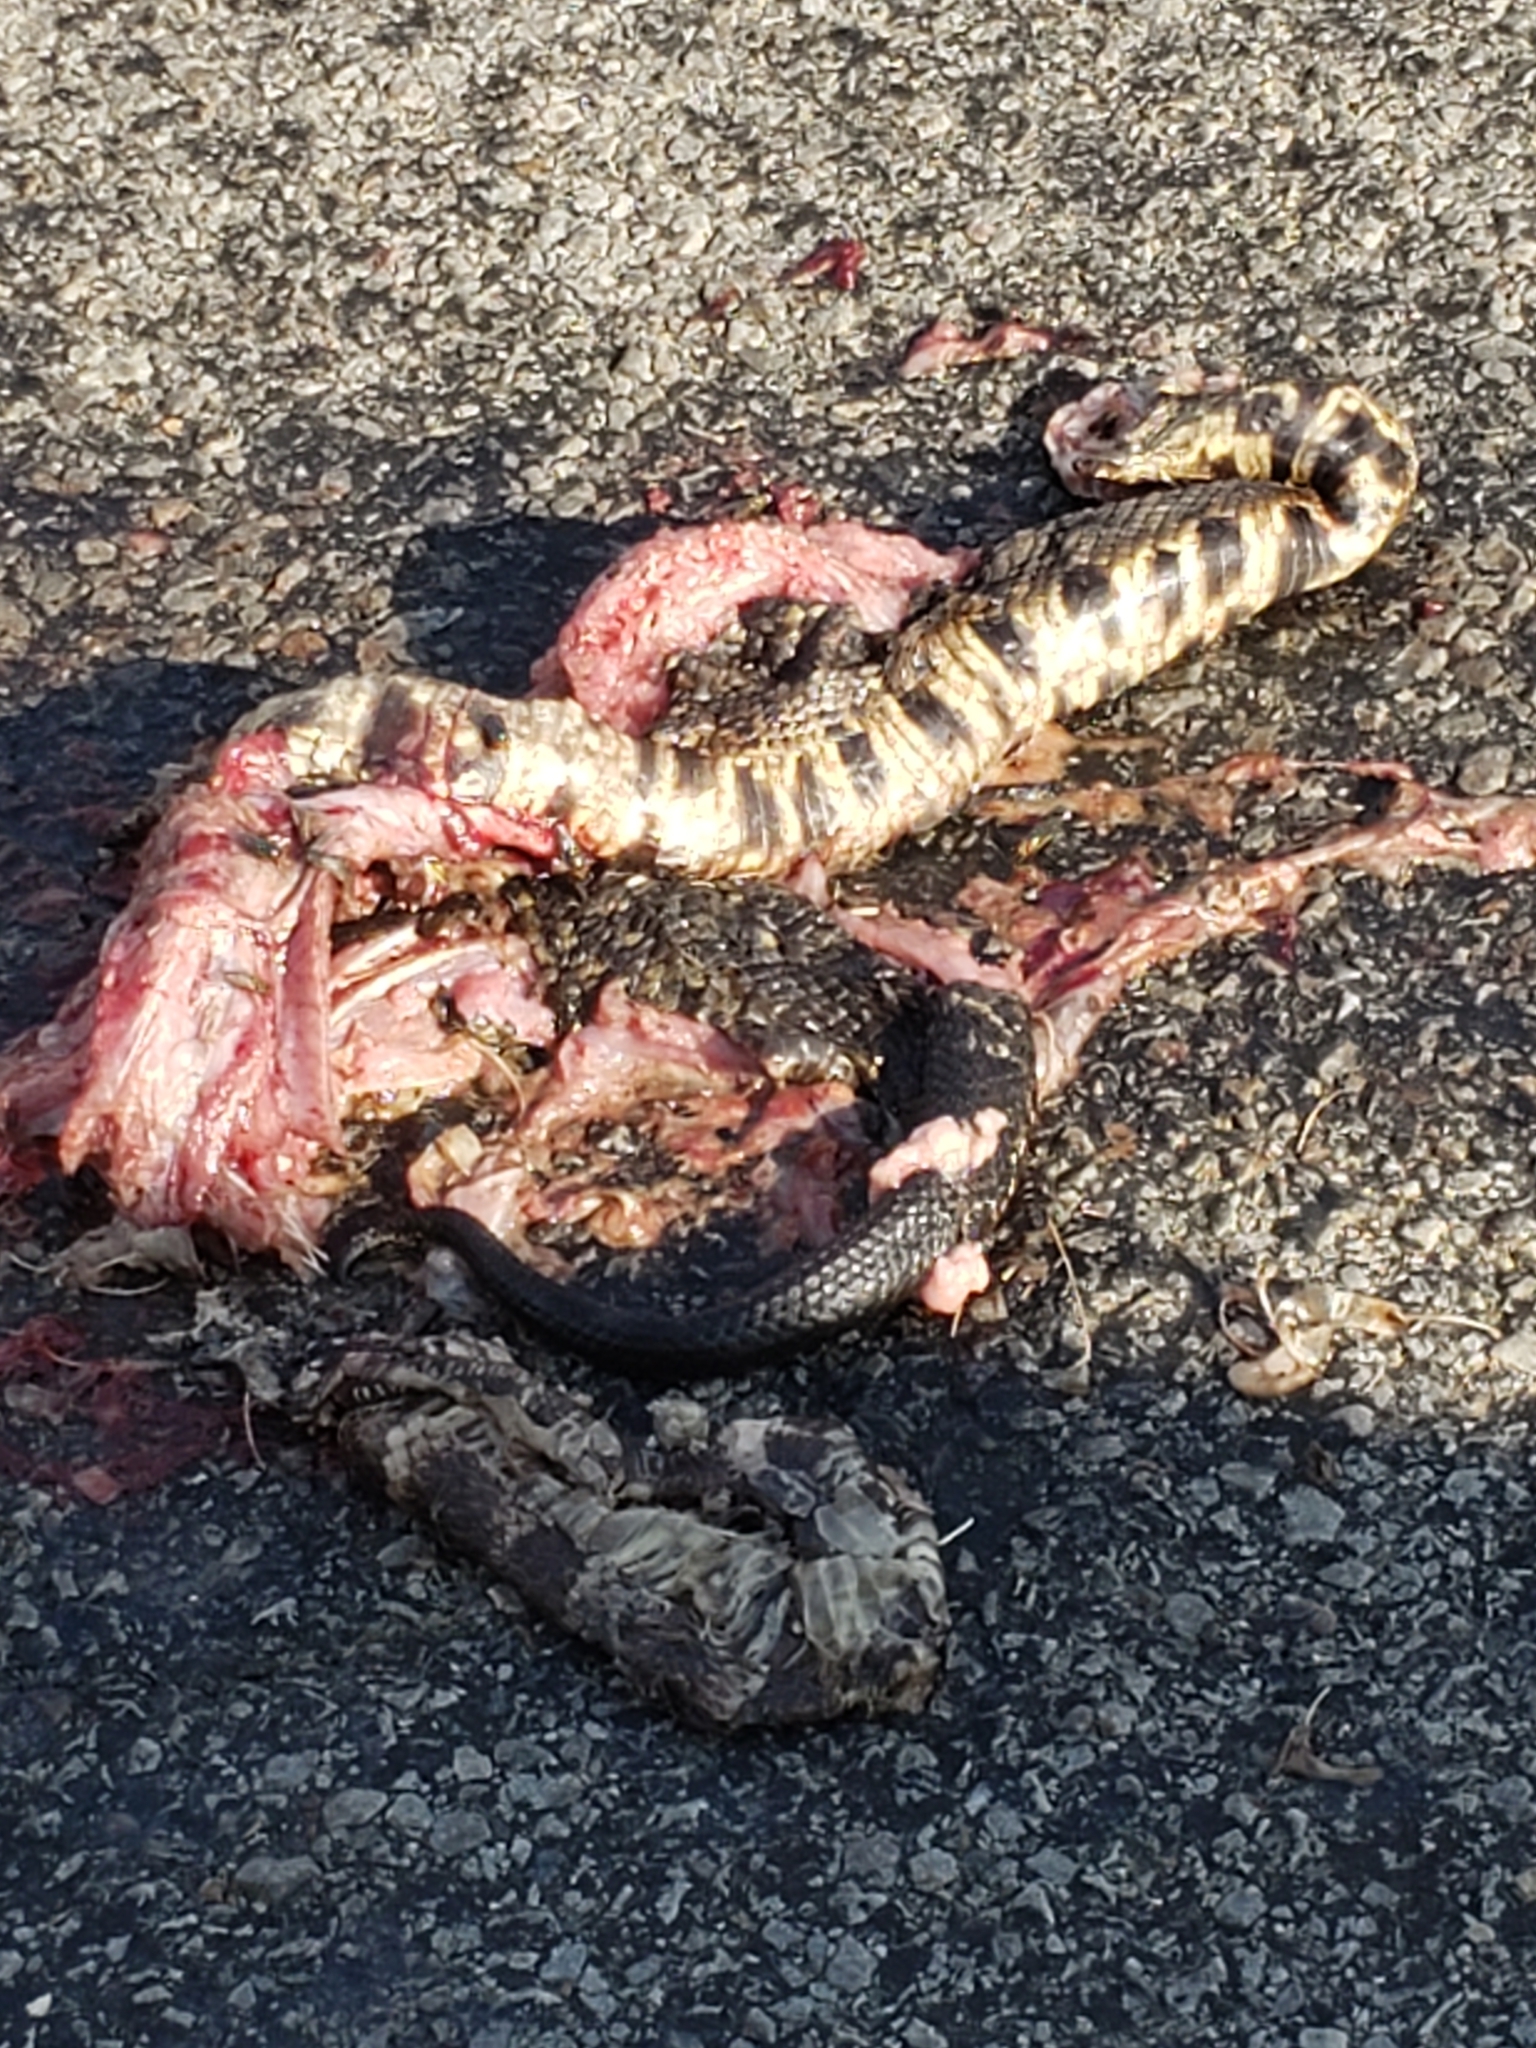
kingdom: Animalia
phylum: Chordata
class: Squamata
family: Viperidae
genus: Agkistrodon
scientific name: Agkistrodon piscivorus
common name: Cottonmouth
